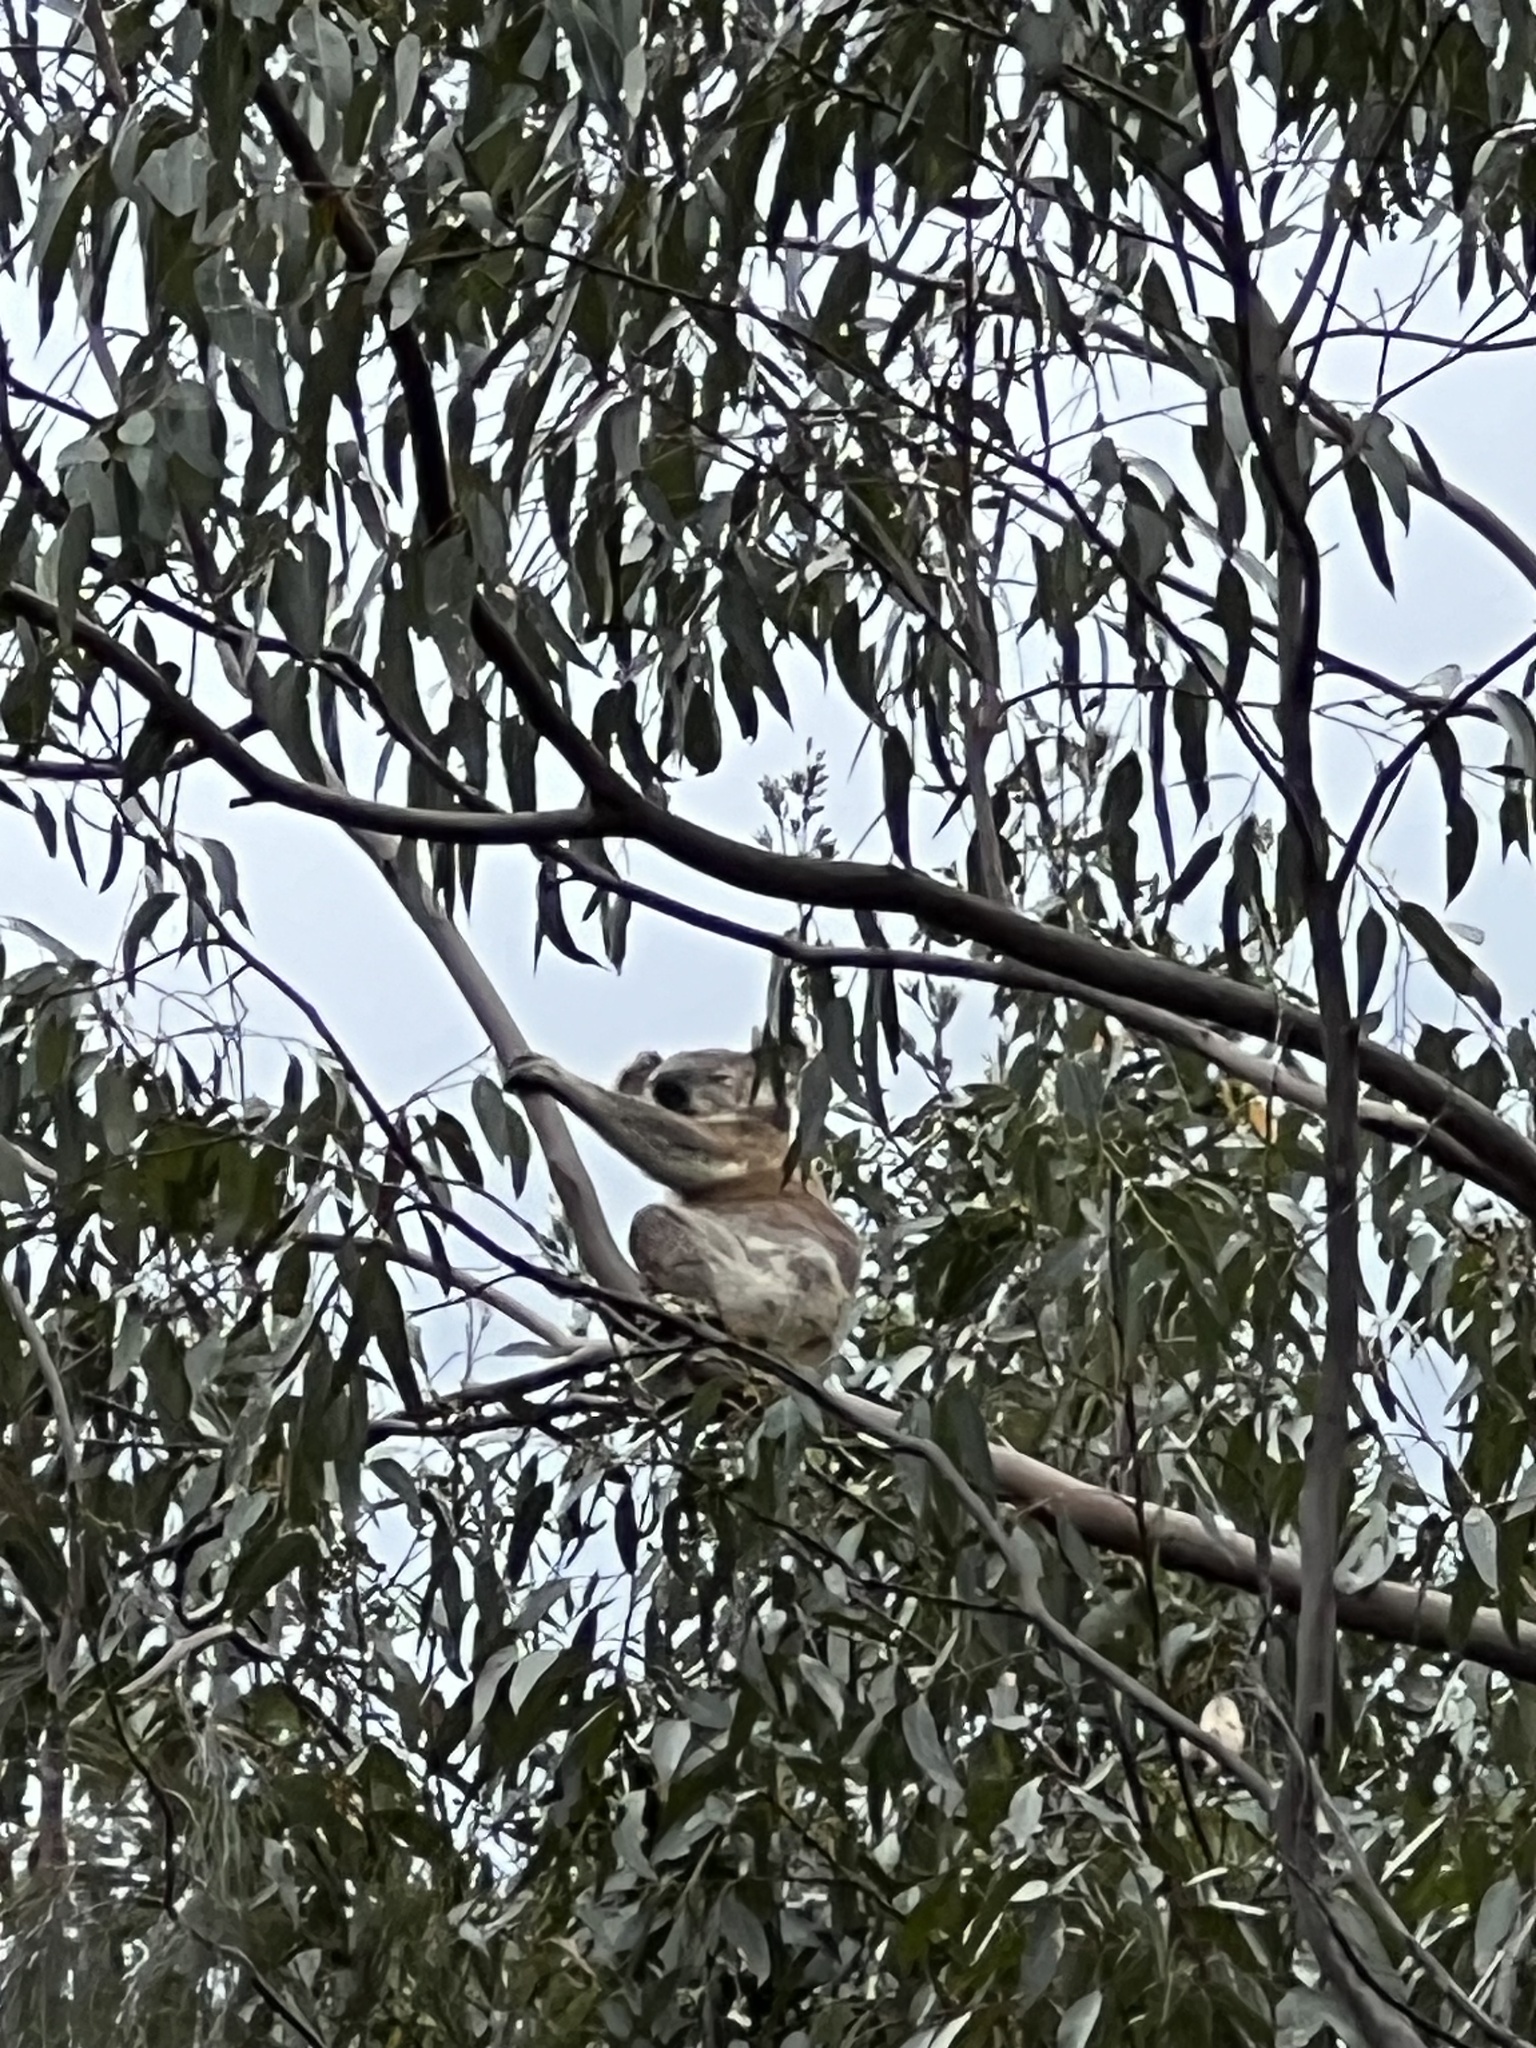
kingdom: Animalia
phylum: Chordata
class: Mammalia
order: Diprotodontia
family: Phascolarctidae
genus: Phascolarctos
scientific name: Phascolarctos cinereus
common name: Koala
